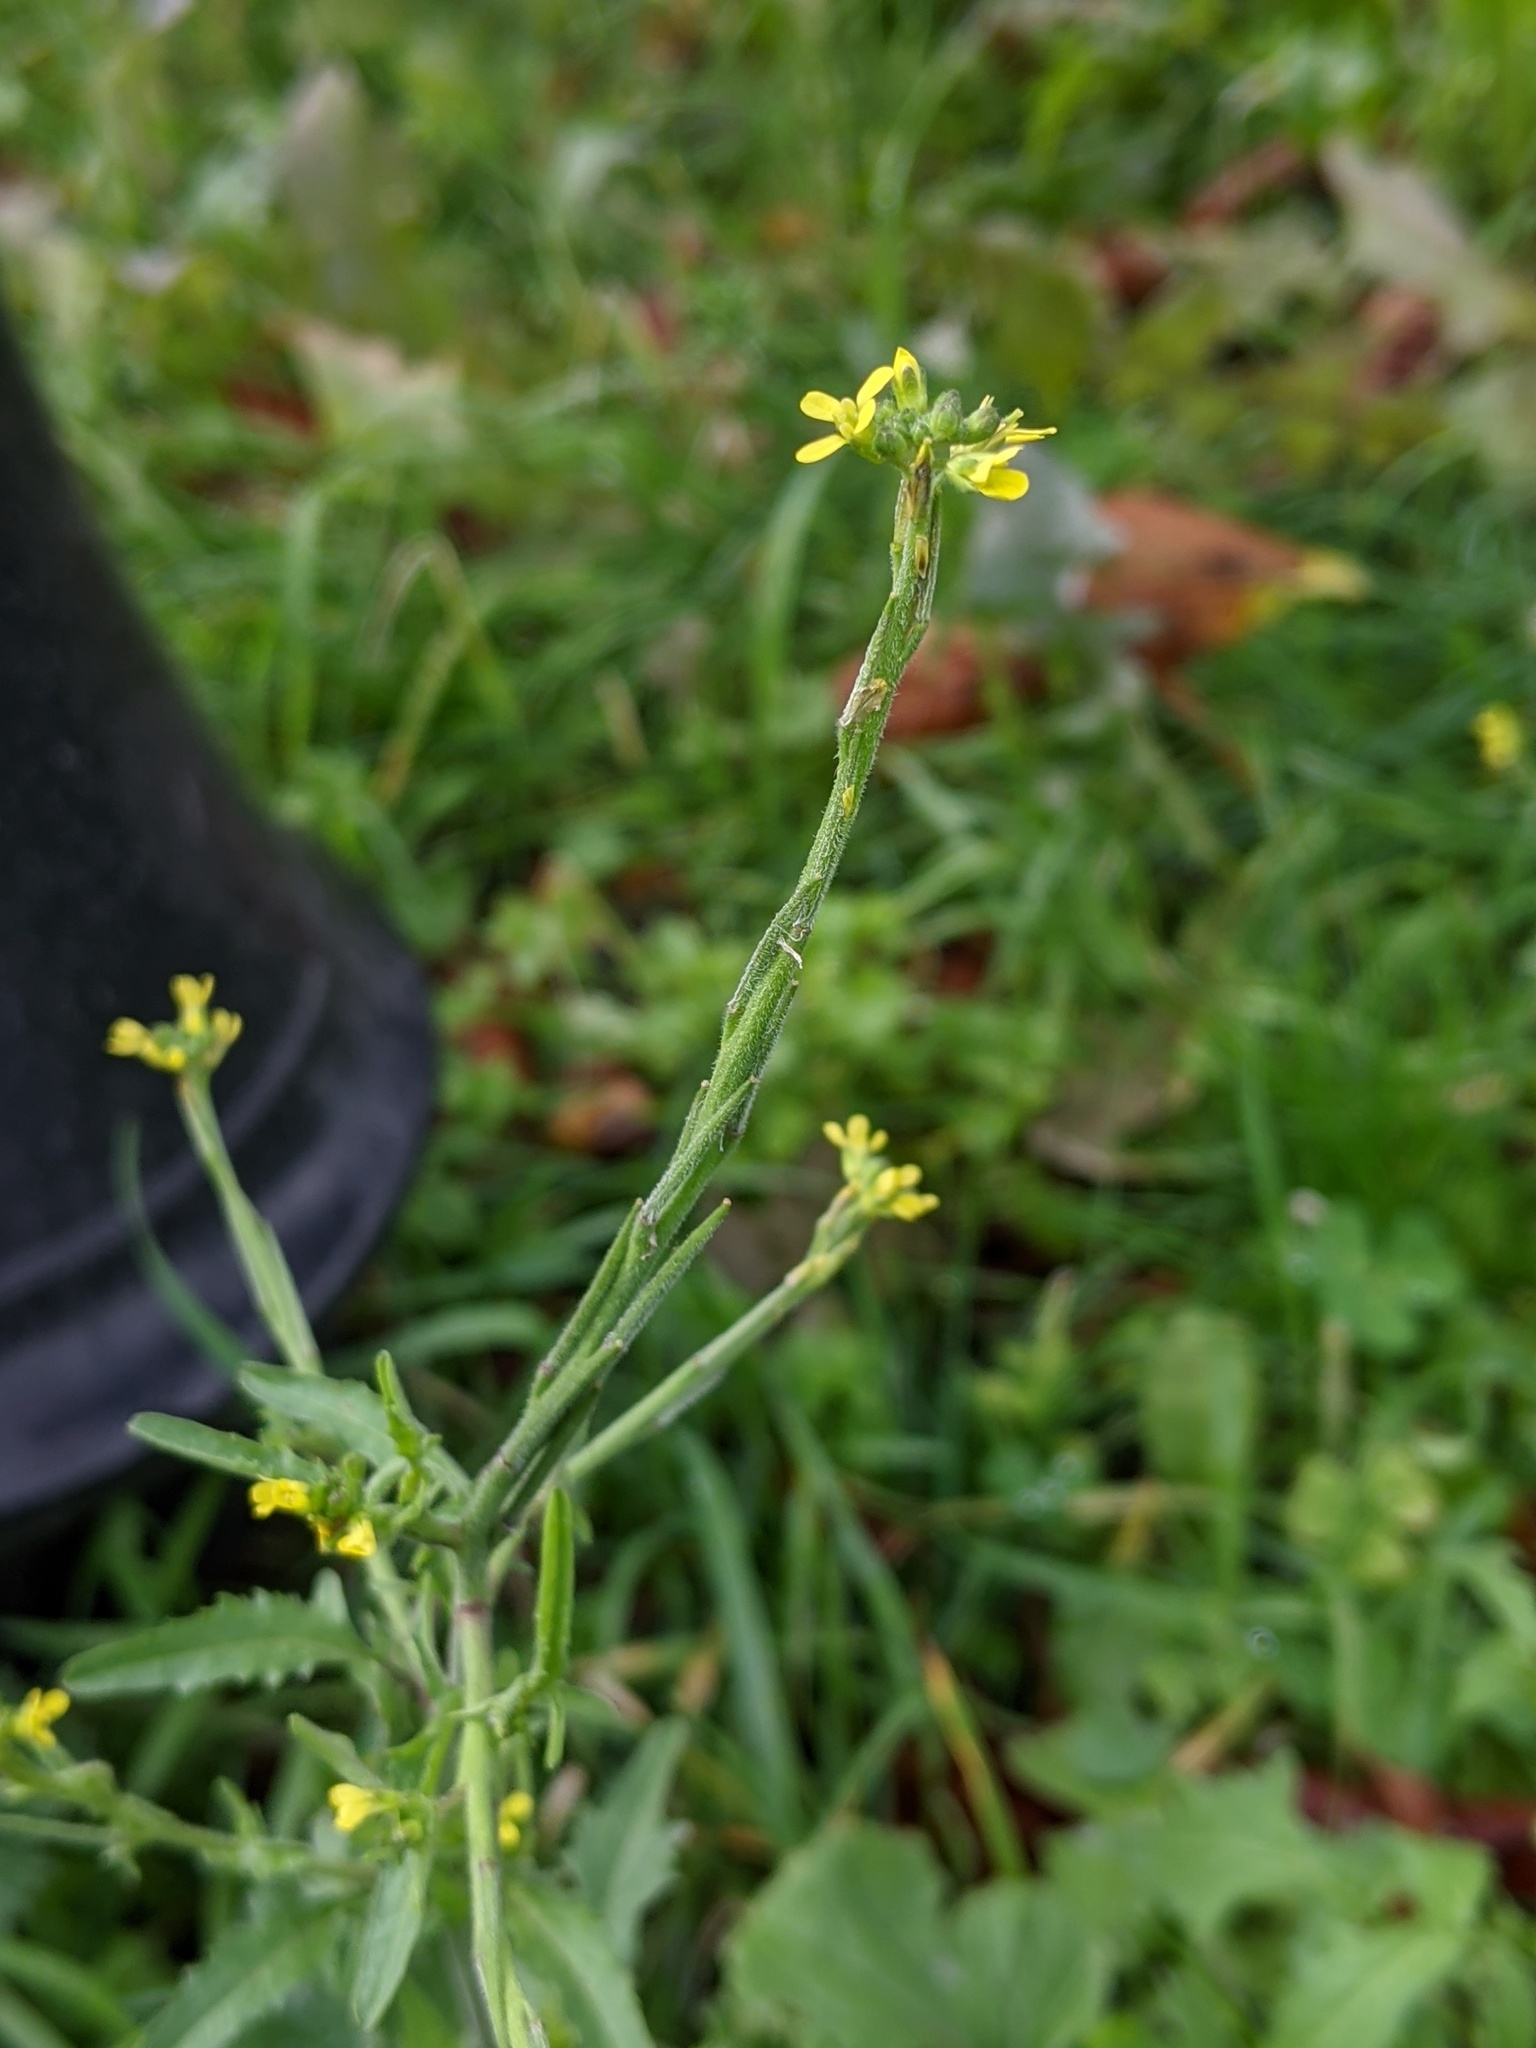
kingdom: Plantae
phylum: Tracheophyta
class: Magnoliopsida
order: Brassicales
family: Brassicaceae
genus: Sisymbrium
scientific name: Sisymbrium officinale
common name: Hedge mustard
